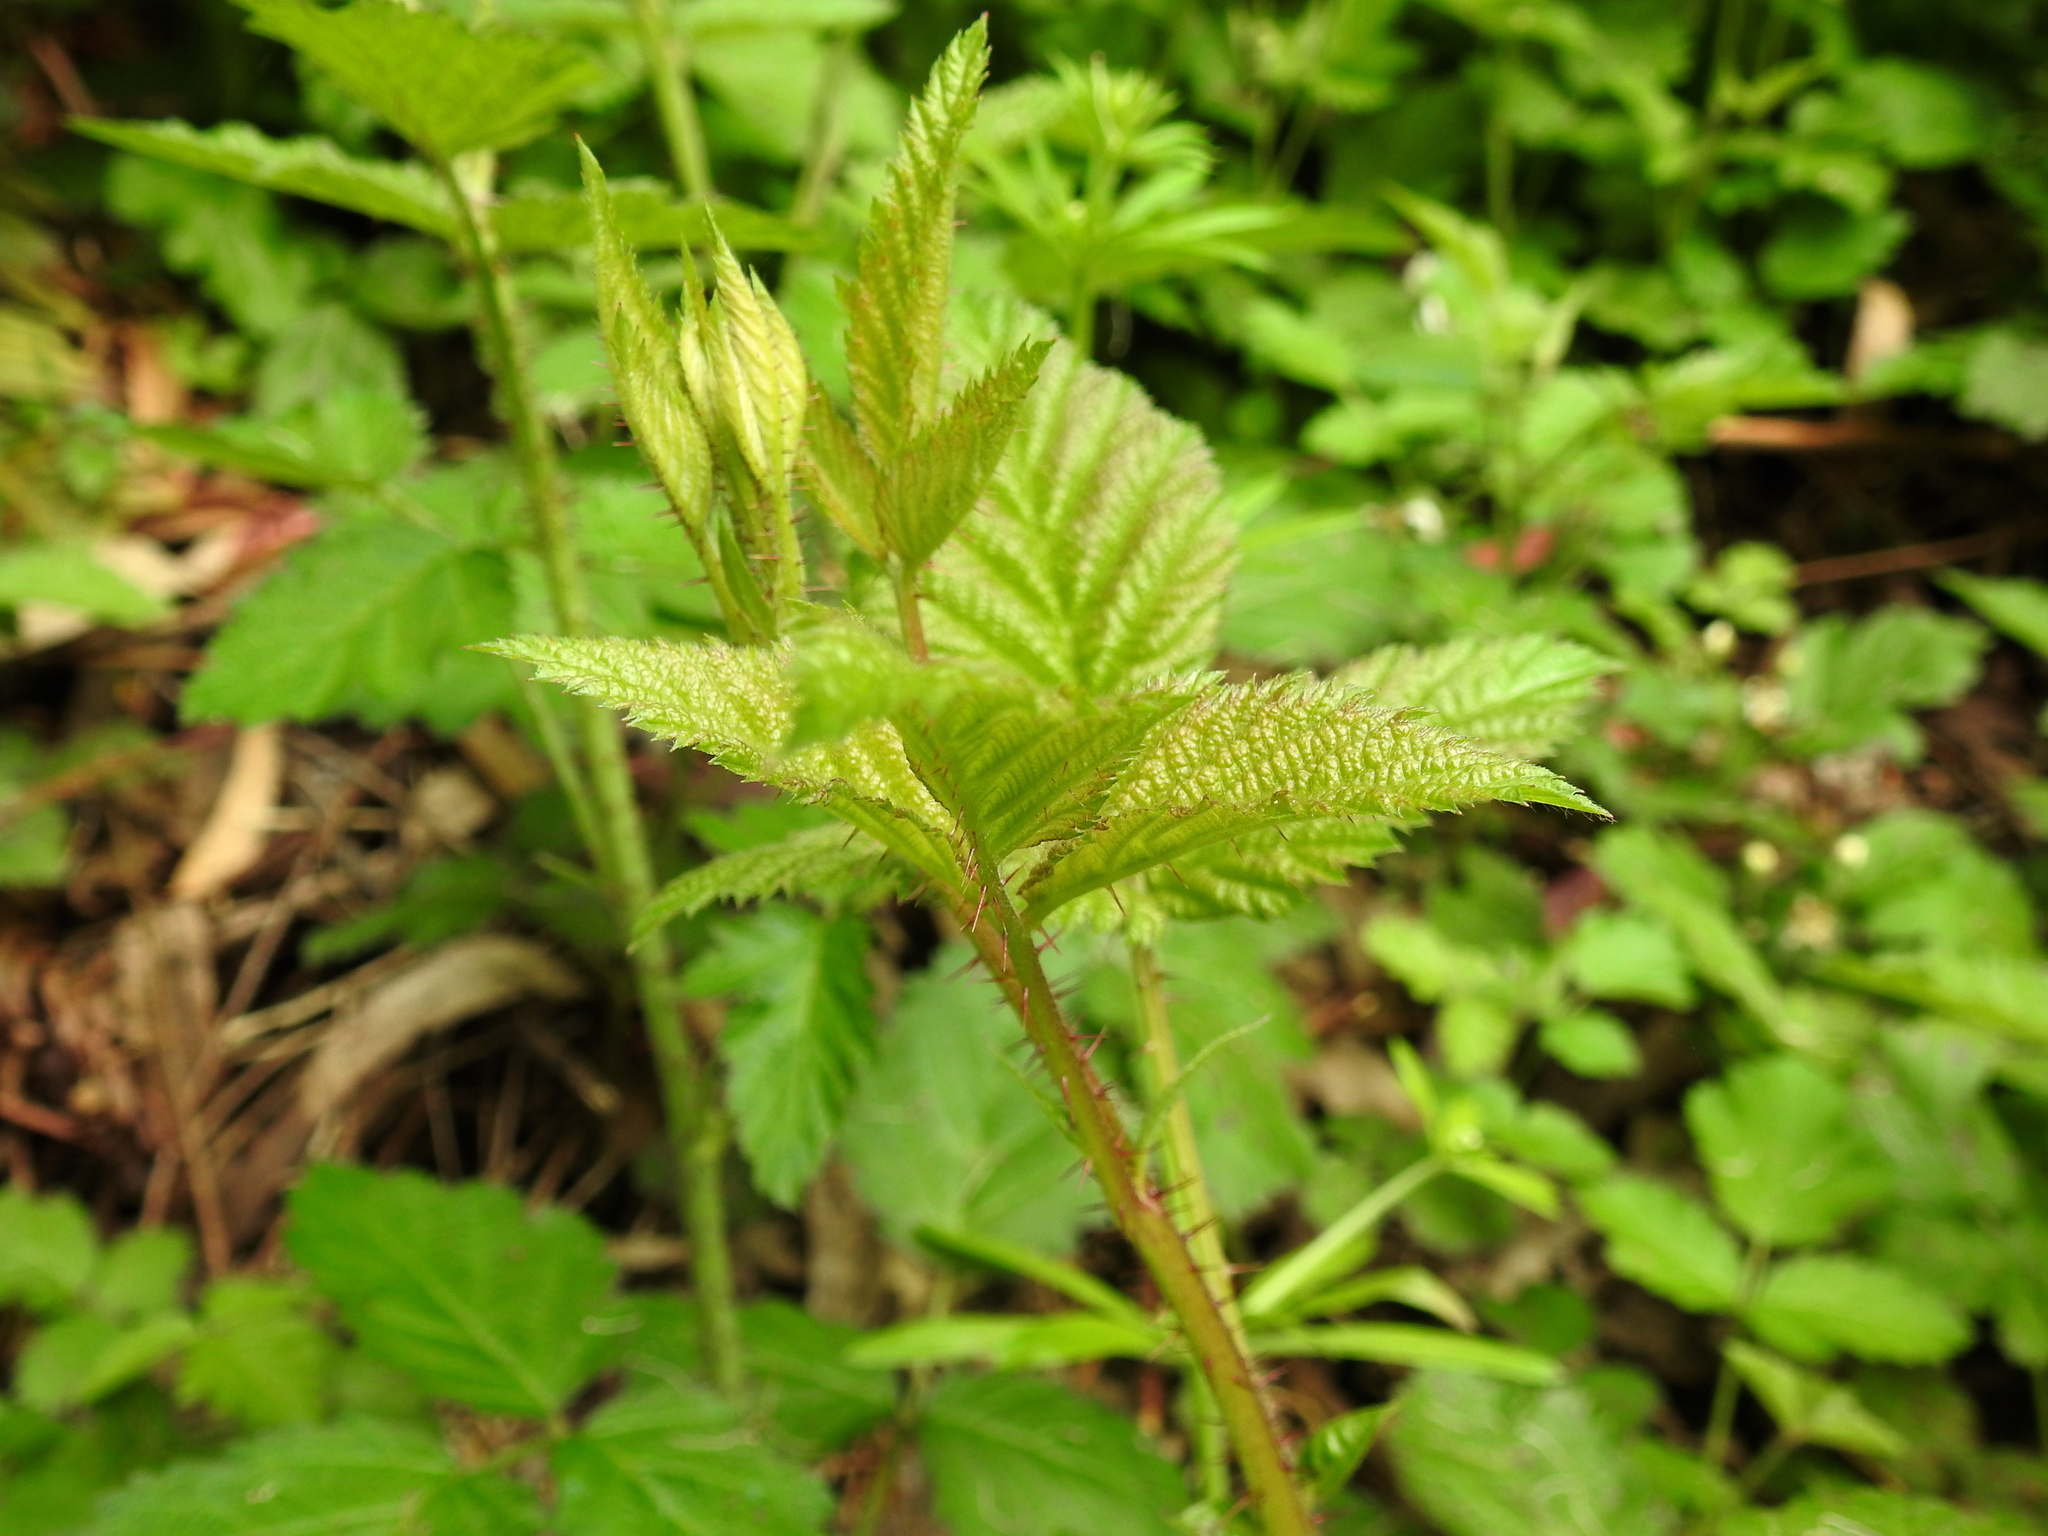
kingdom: Plantae
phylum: Tracheophyta
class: Magnoliopsida
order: Rosales
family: Rosaceae
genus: Rubus
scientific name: Rubus ursinus
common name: Pacific blackberry
